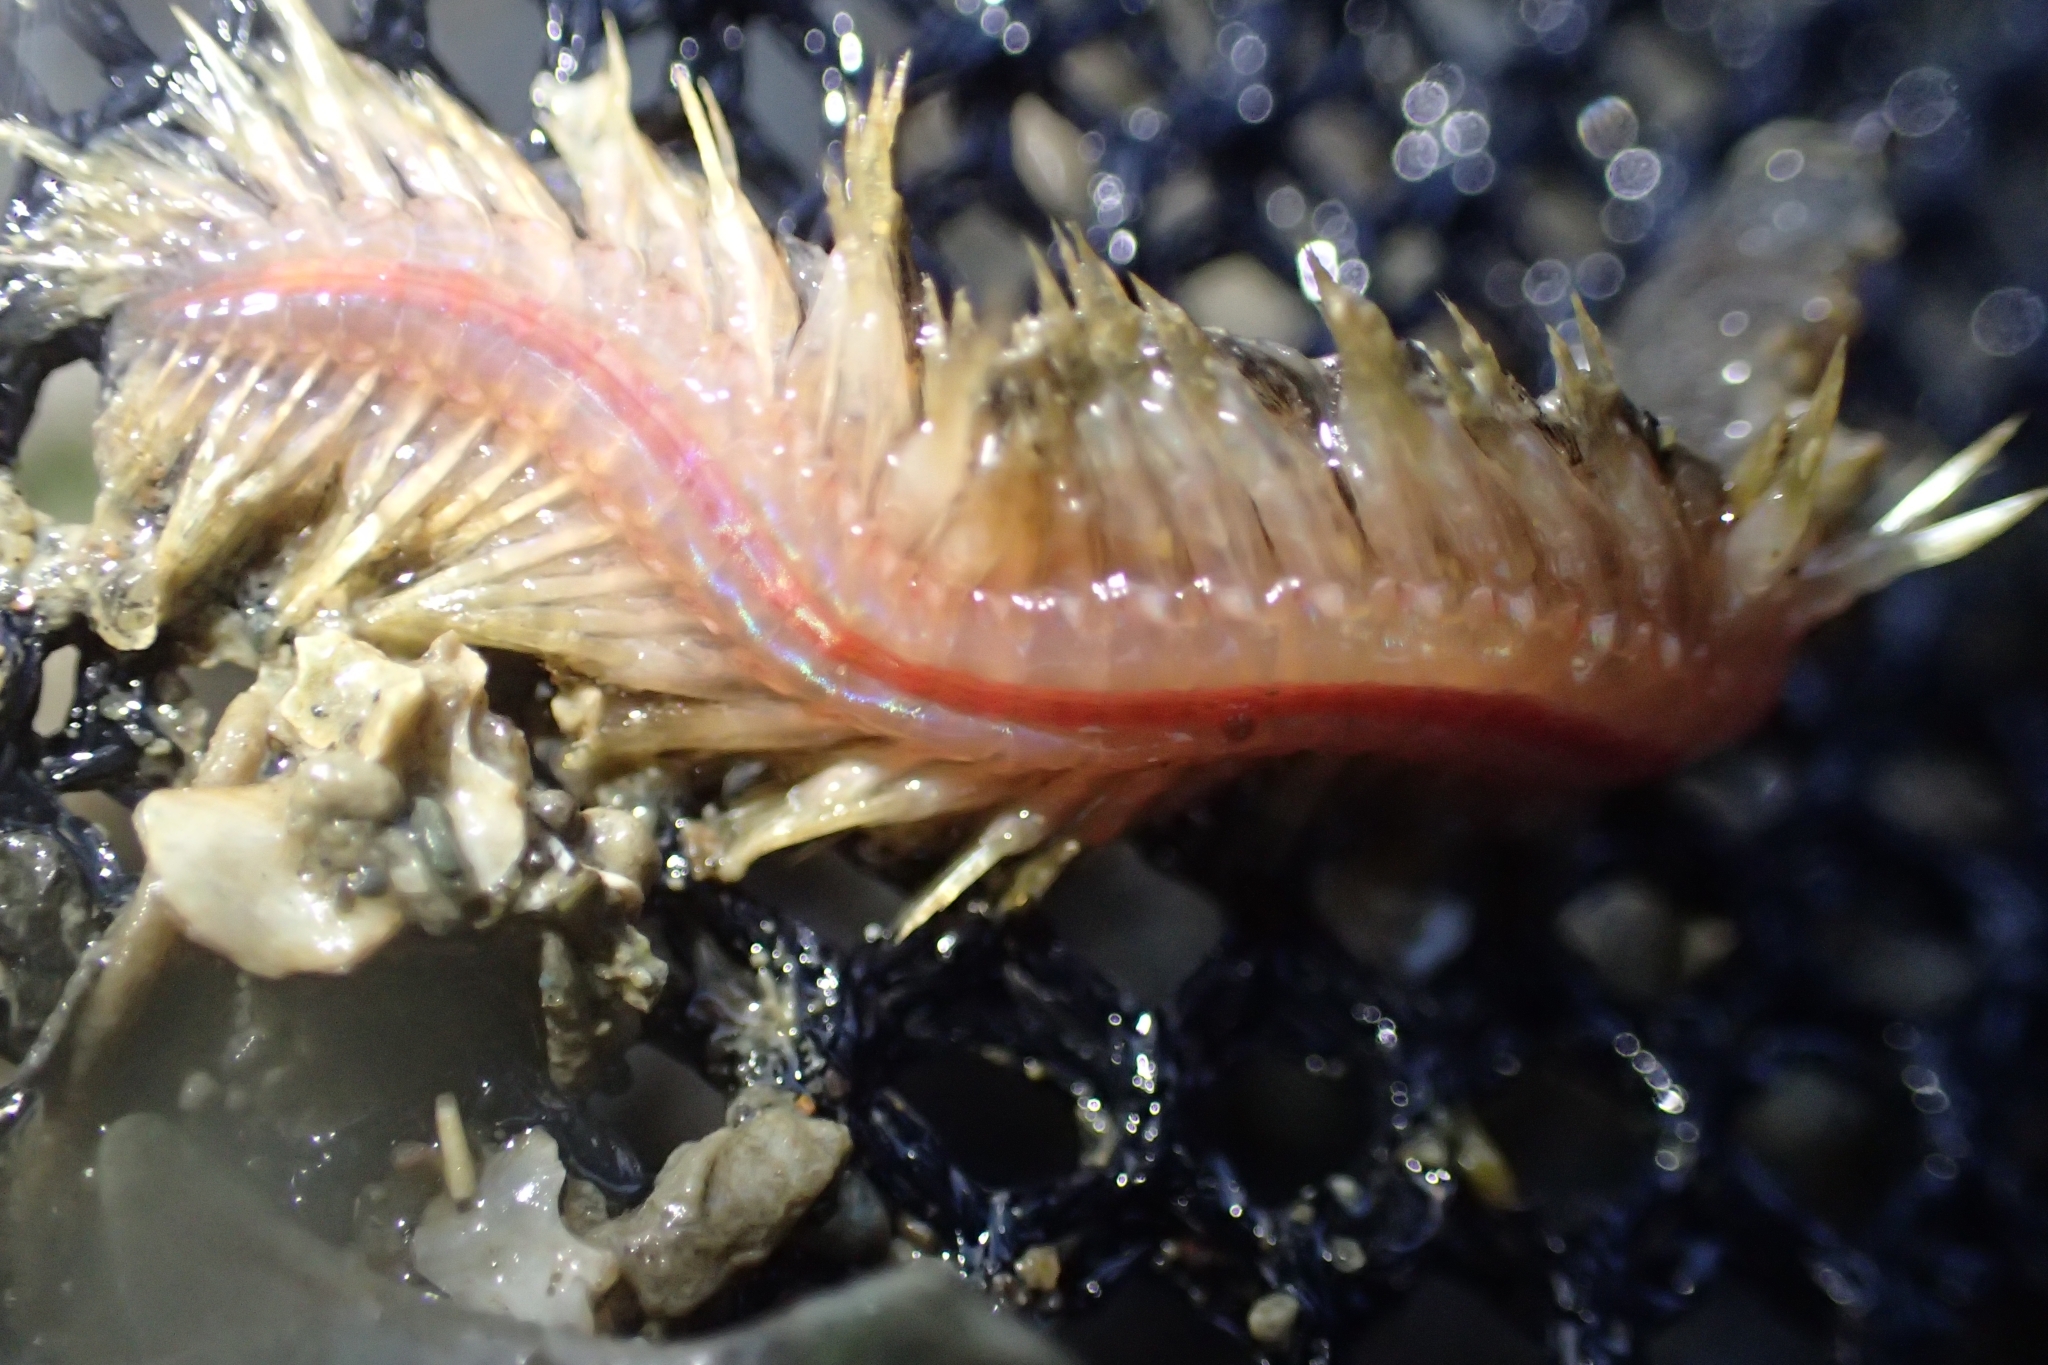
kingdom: Animalia
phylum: Annelida
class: Polychaeta
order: Phyllodocida
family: Polynoidae
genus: Paralepidonotus
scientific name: Paralepidonotus ampulliferus
